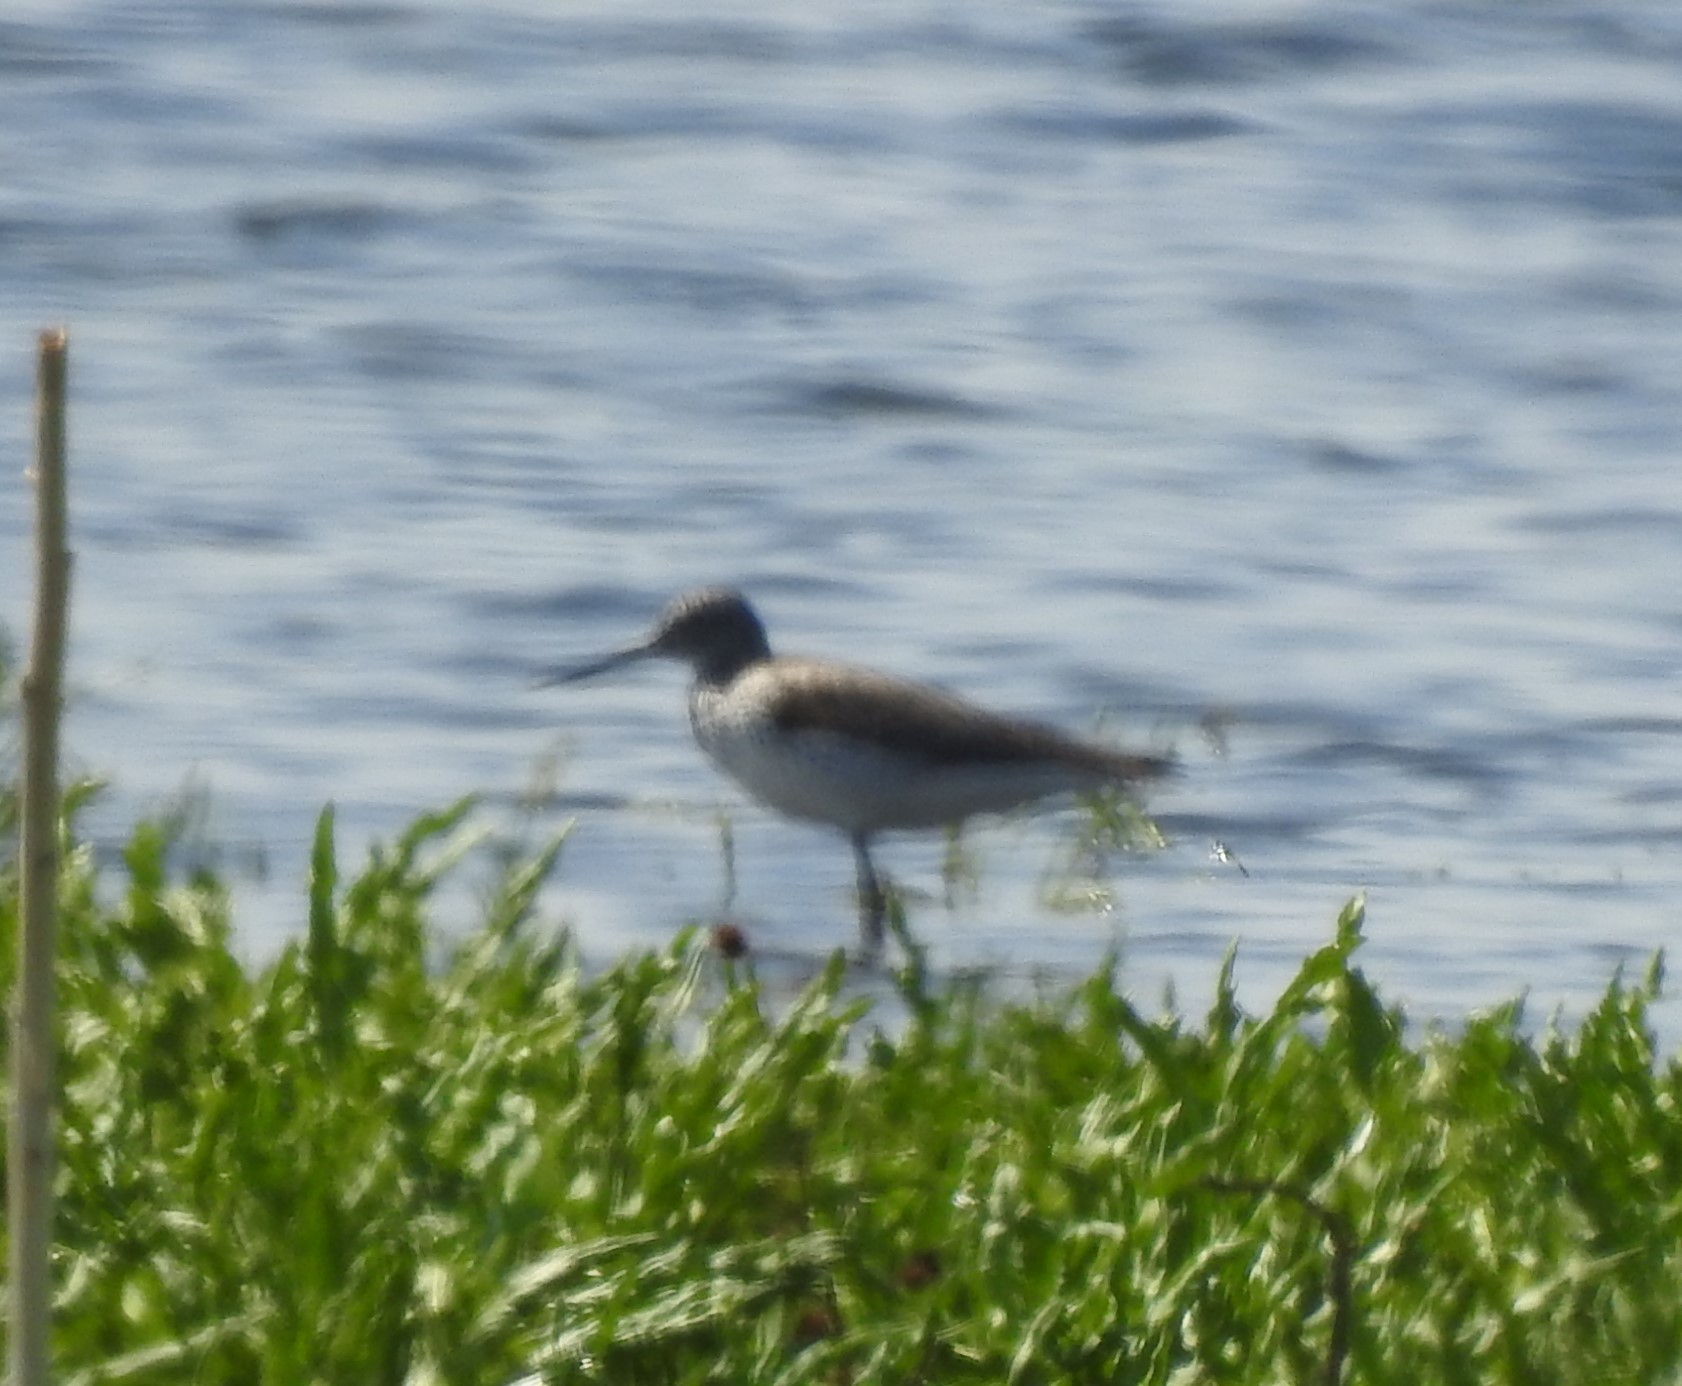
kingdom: Animalia
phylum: Chordata
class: Aves
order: Charadriiformes
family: Scolopacidae
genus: Tringa
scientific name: Tringa nebularia
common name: Common greenshank
